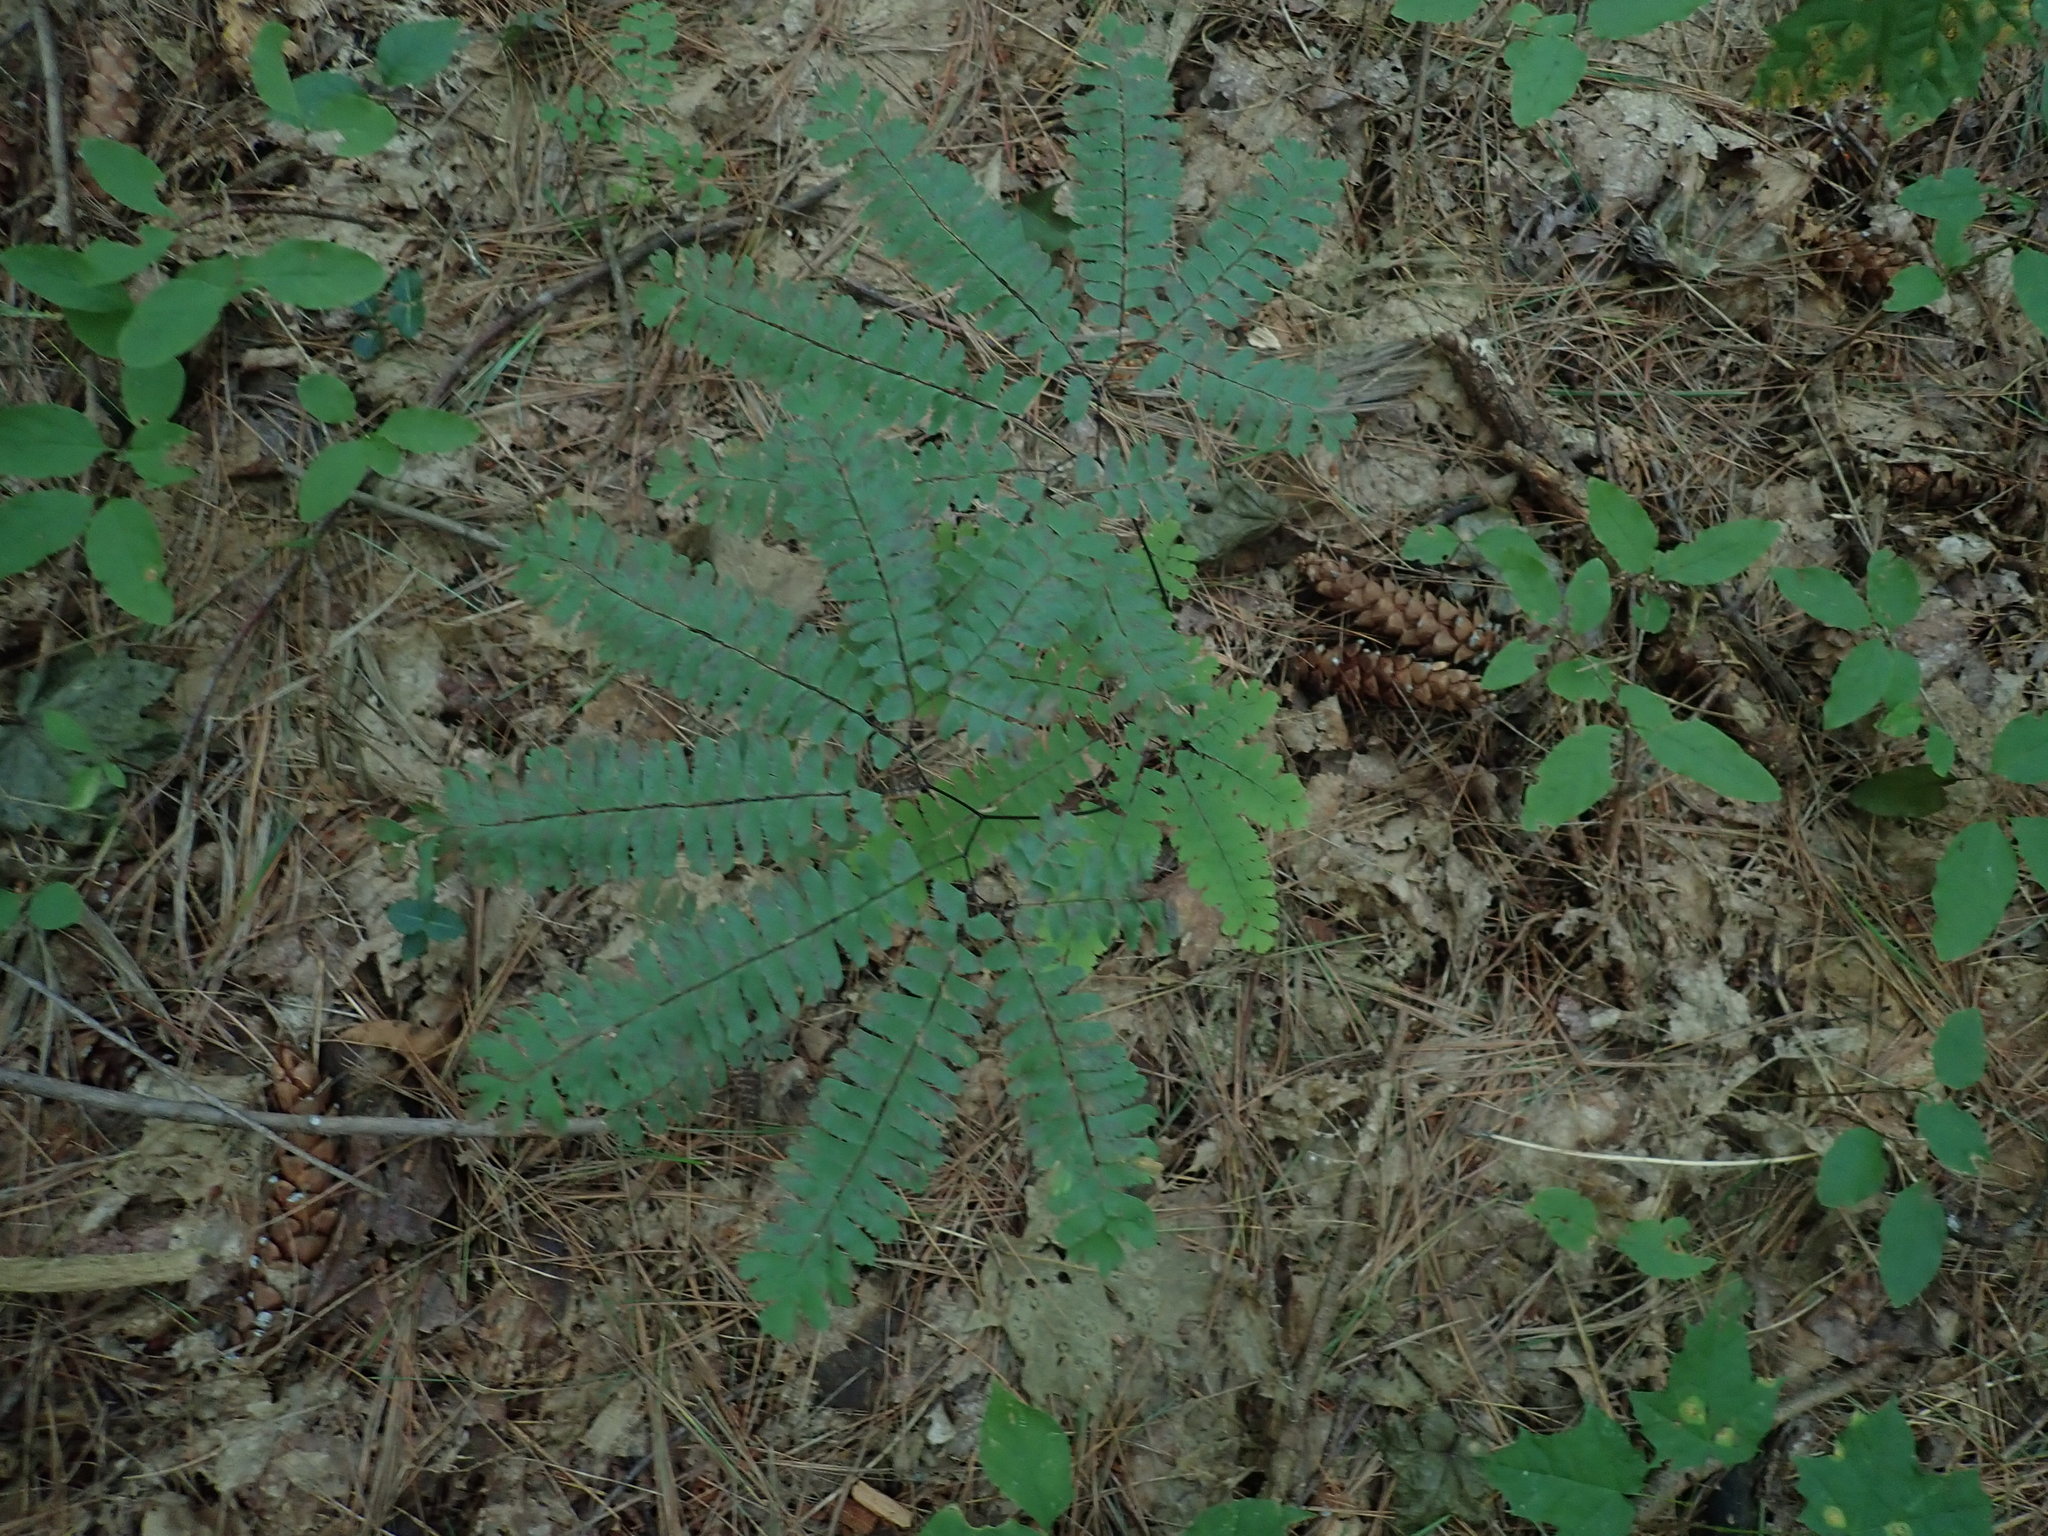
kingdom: Plantae
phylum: Tracheophyta
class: Polypodiopsida
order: Polypodiales
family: Pteridaceae
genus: Adiantum
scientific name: Adiantum pedatum
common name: Five-finger fern
